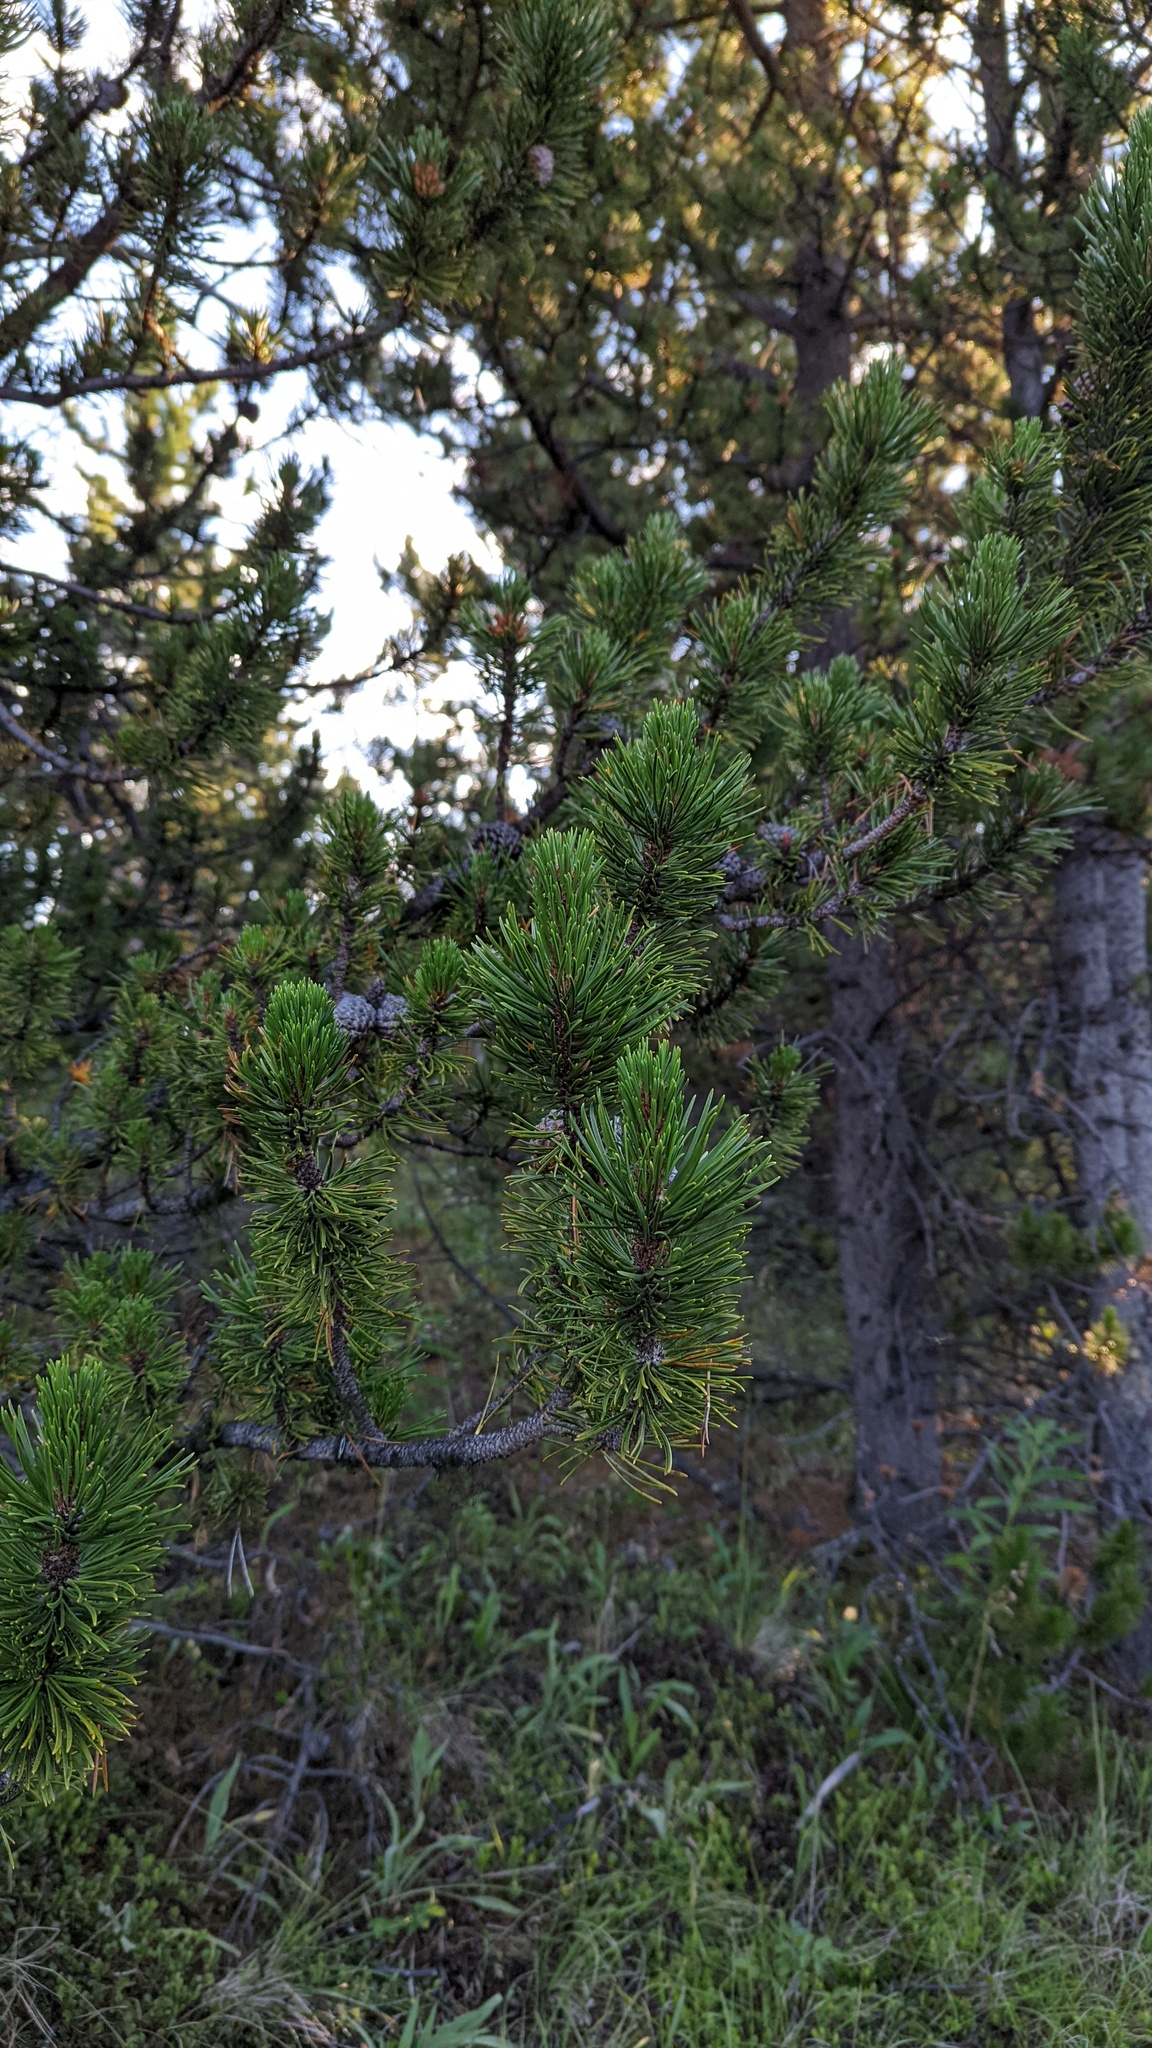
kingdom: Plantae
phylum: Tracheophyta
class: Pinopsida
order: Pinales
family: Pinaceae
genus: Pinus
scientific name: Pinus contorta
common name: Lodgepole pine
